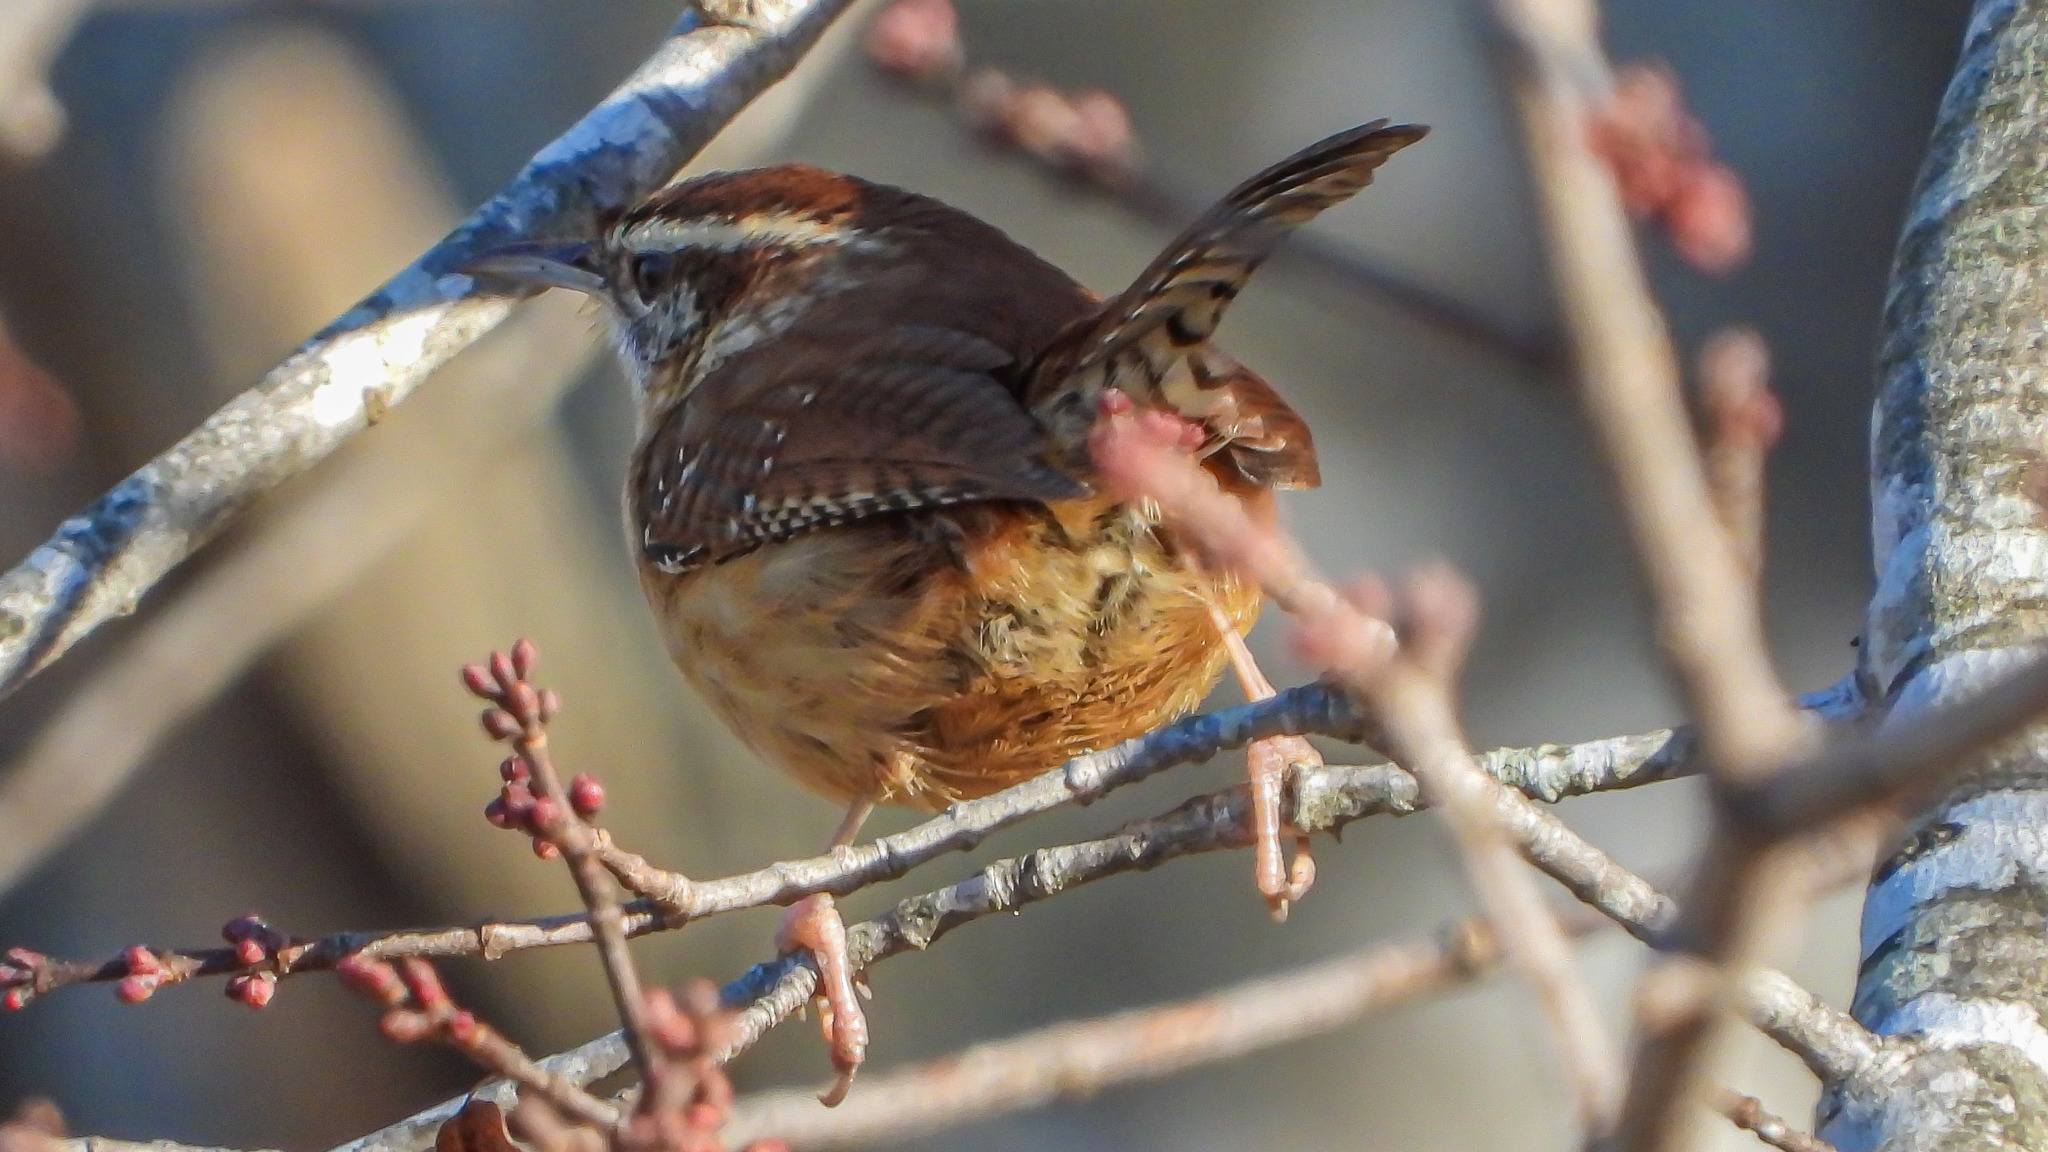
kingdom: Animalia
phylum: Chordata
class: Aves
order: Passeriformes
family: Troglodytidae
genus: Thryothorus
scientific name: Thryothorus ludovicianus
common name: Carolina wren
